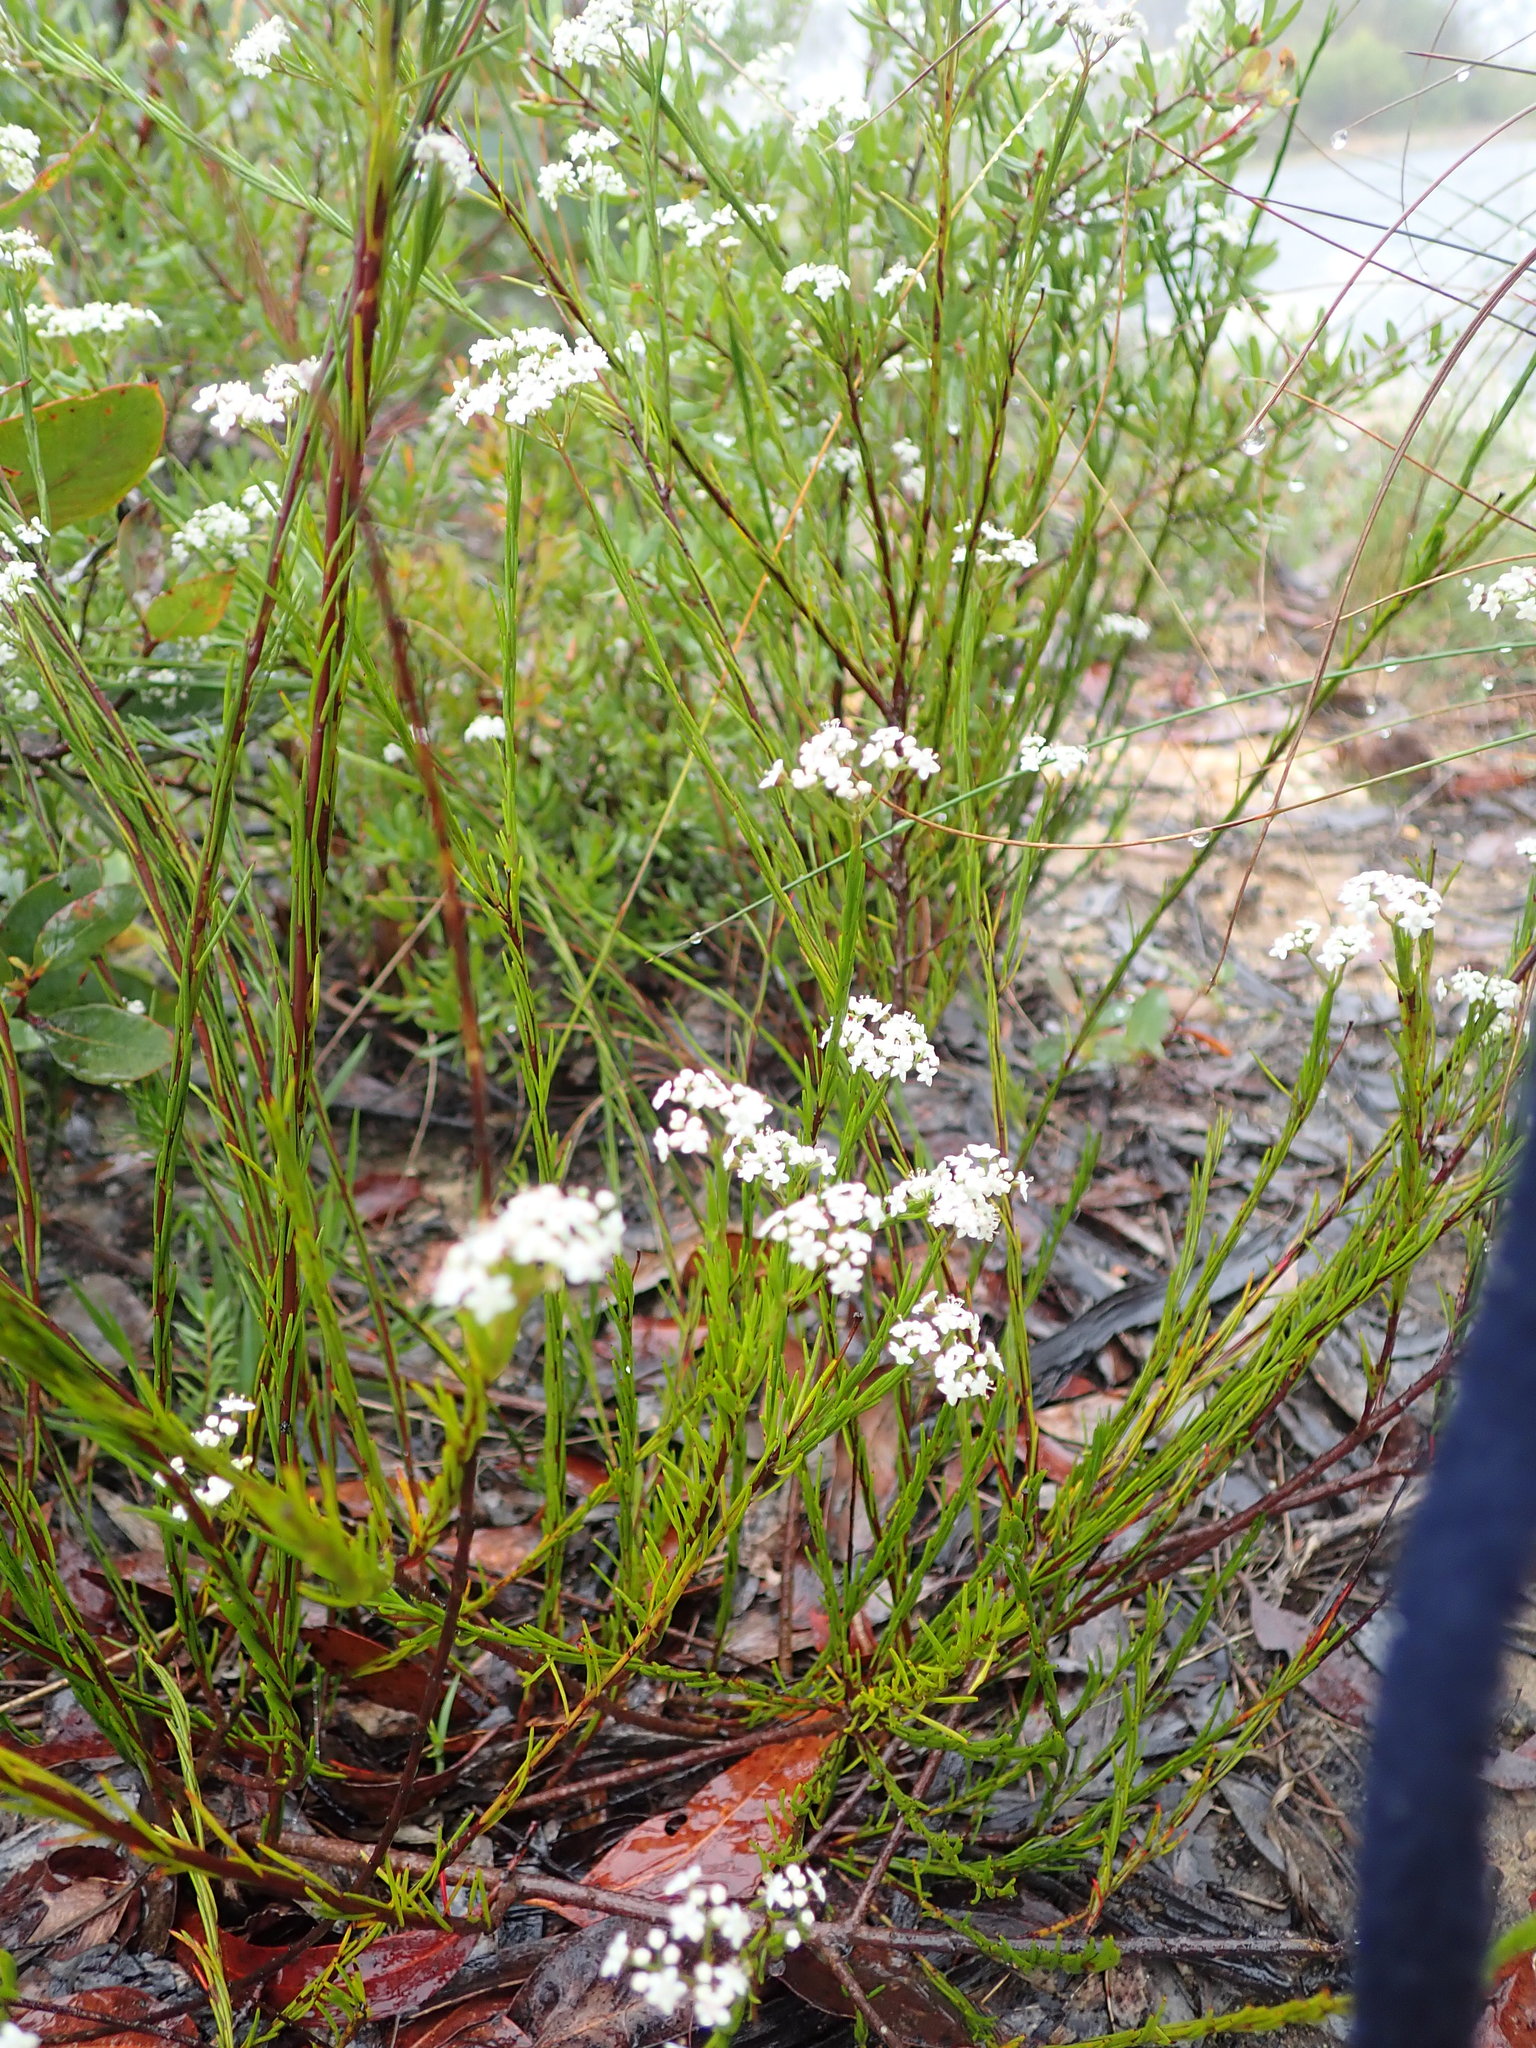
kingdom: Plantae
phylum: Tracheophyta
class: Magnoliopsida
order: Apiales
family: Apiaceae
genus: Platysace
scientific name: Platysace linearifolia
